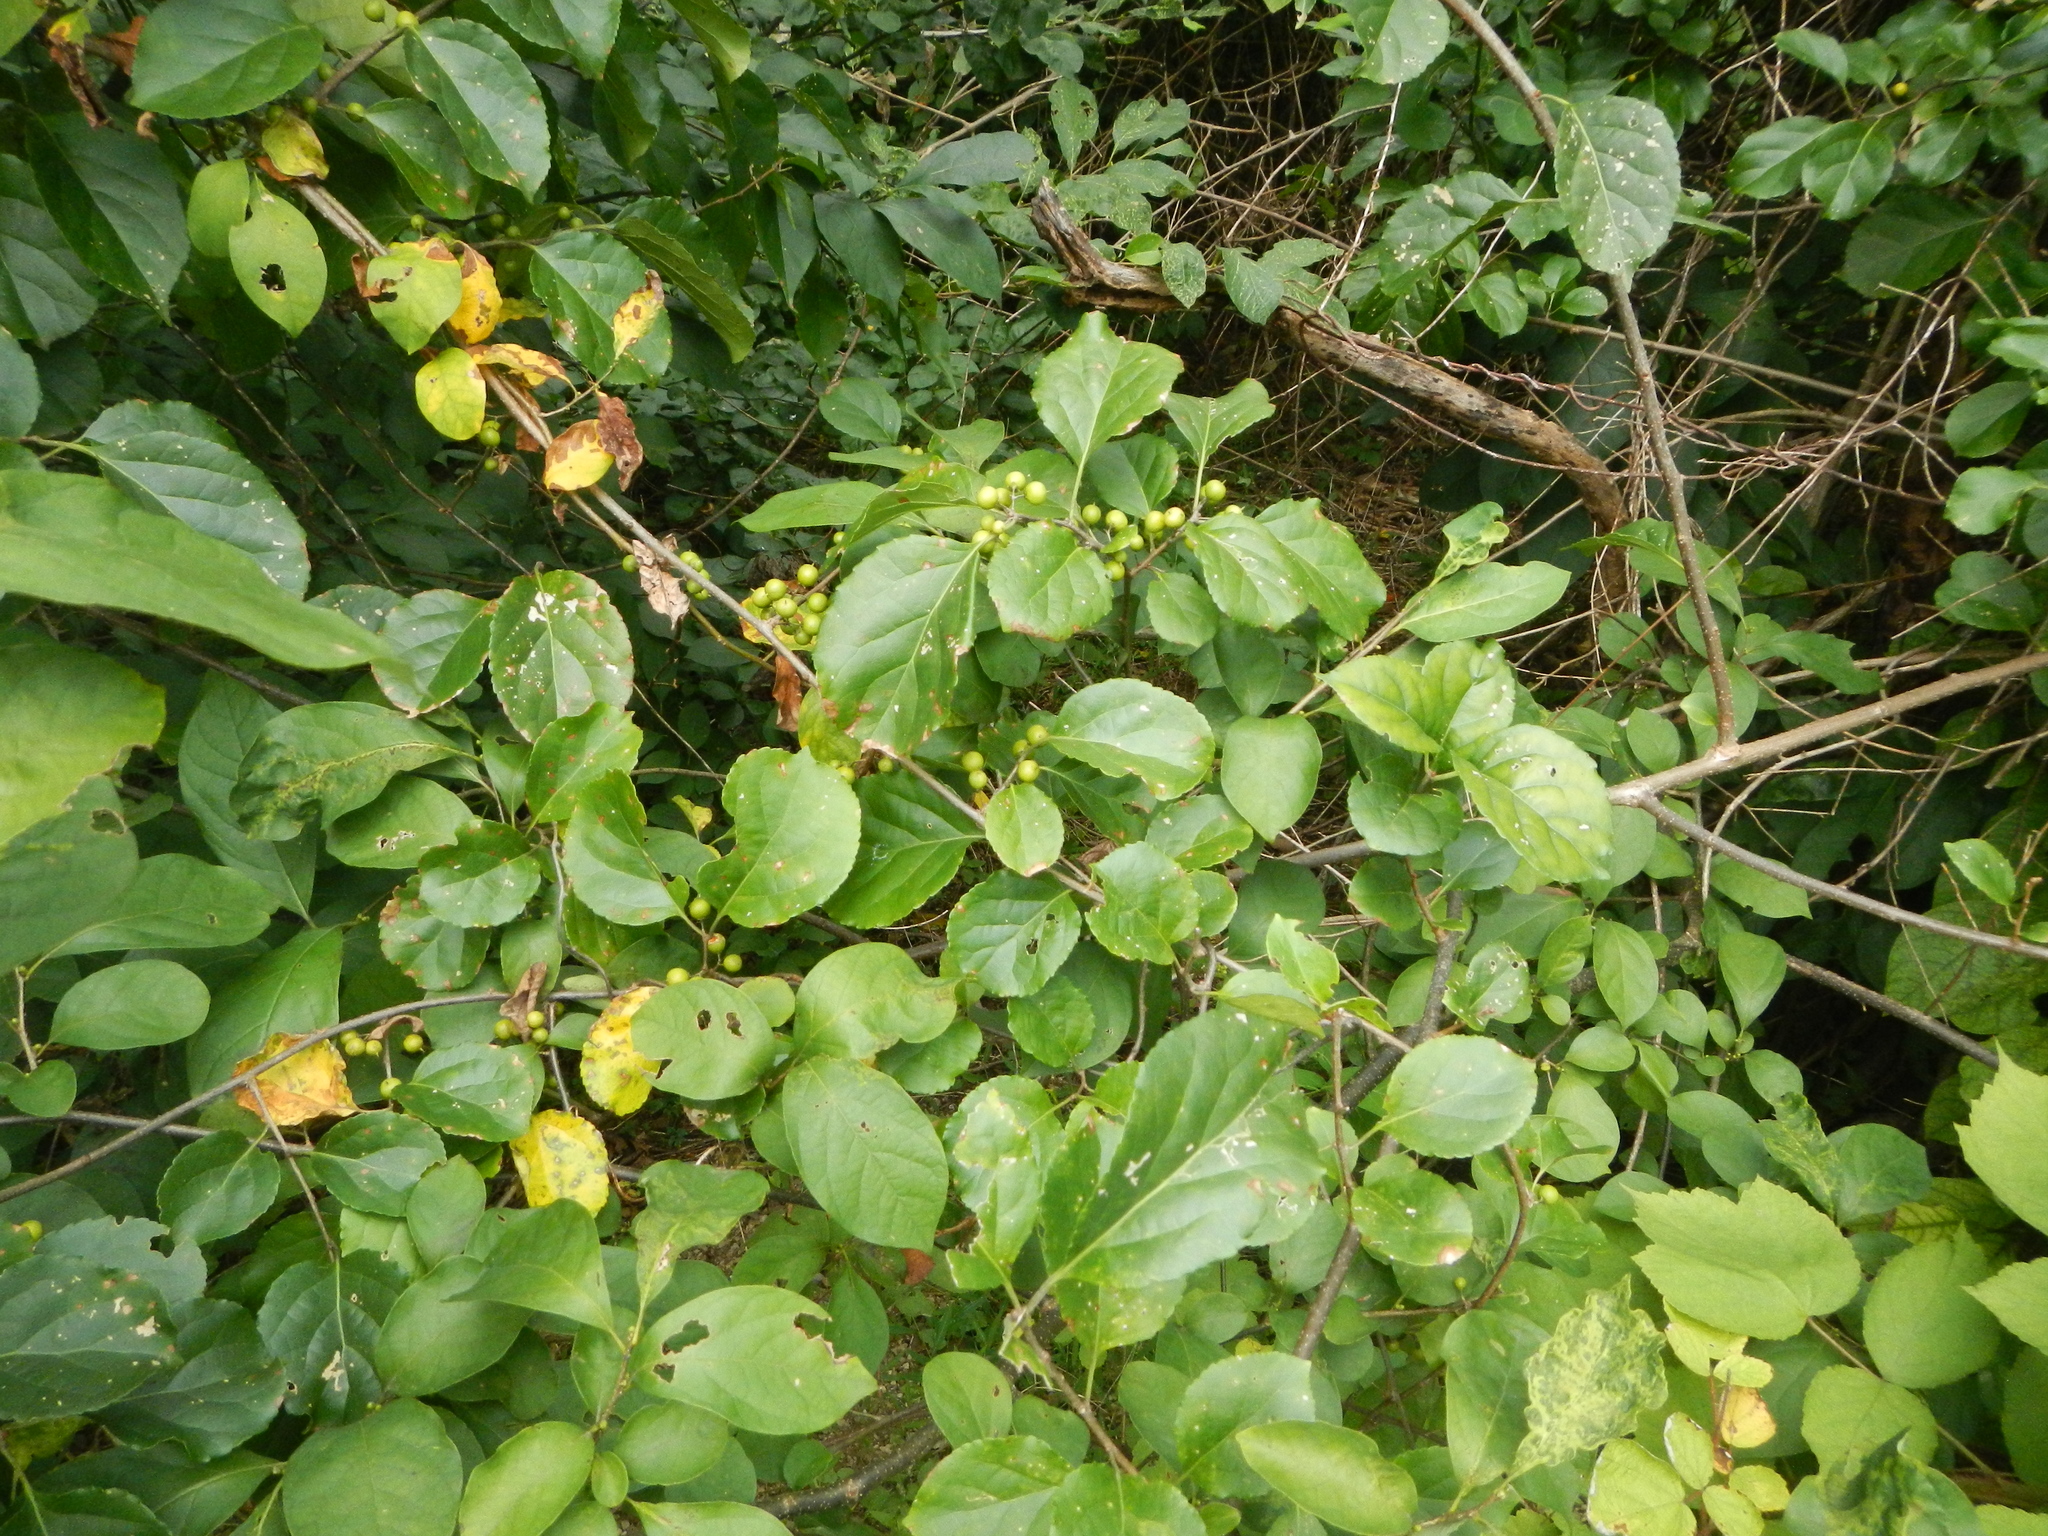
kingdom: Plantae
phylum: Tracheophyta
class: Magnoliopsida
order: Celastrales
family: Celastraceae
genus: Celastrus
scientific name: Celastrus orbiculatus
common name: Oriental bittersweet
